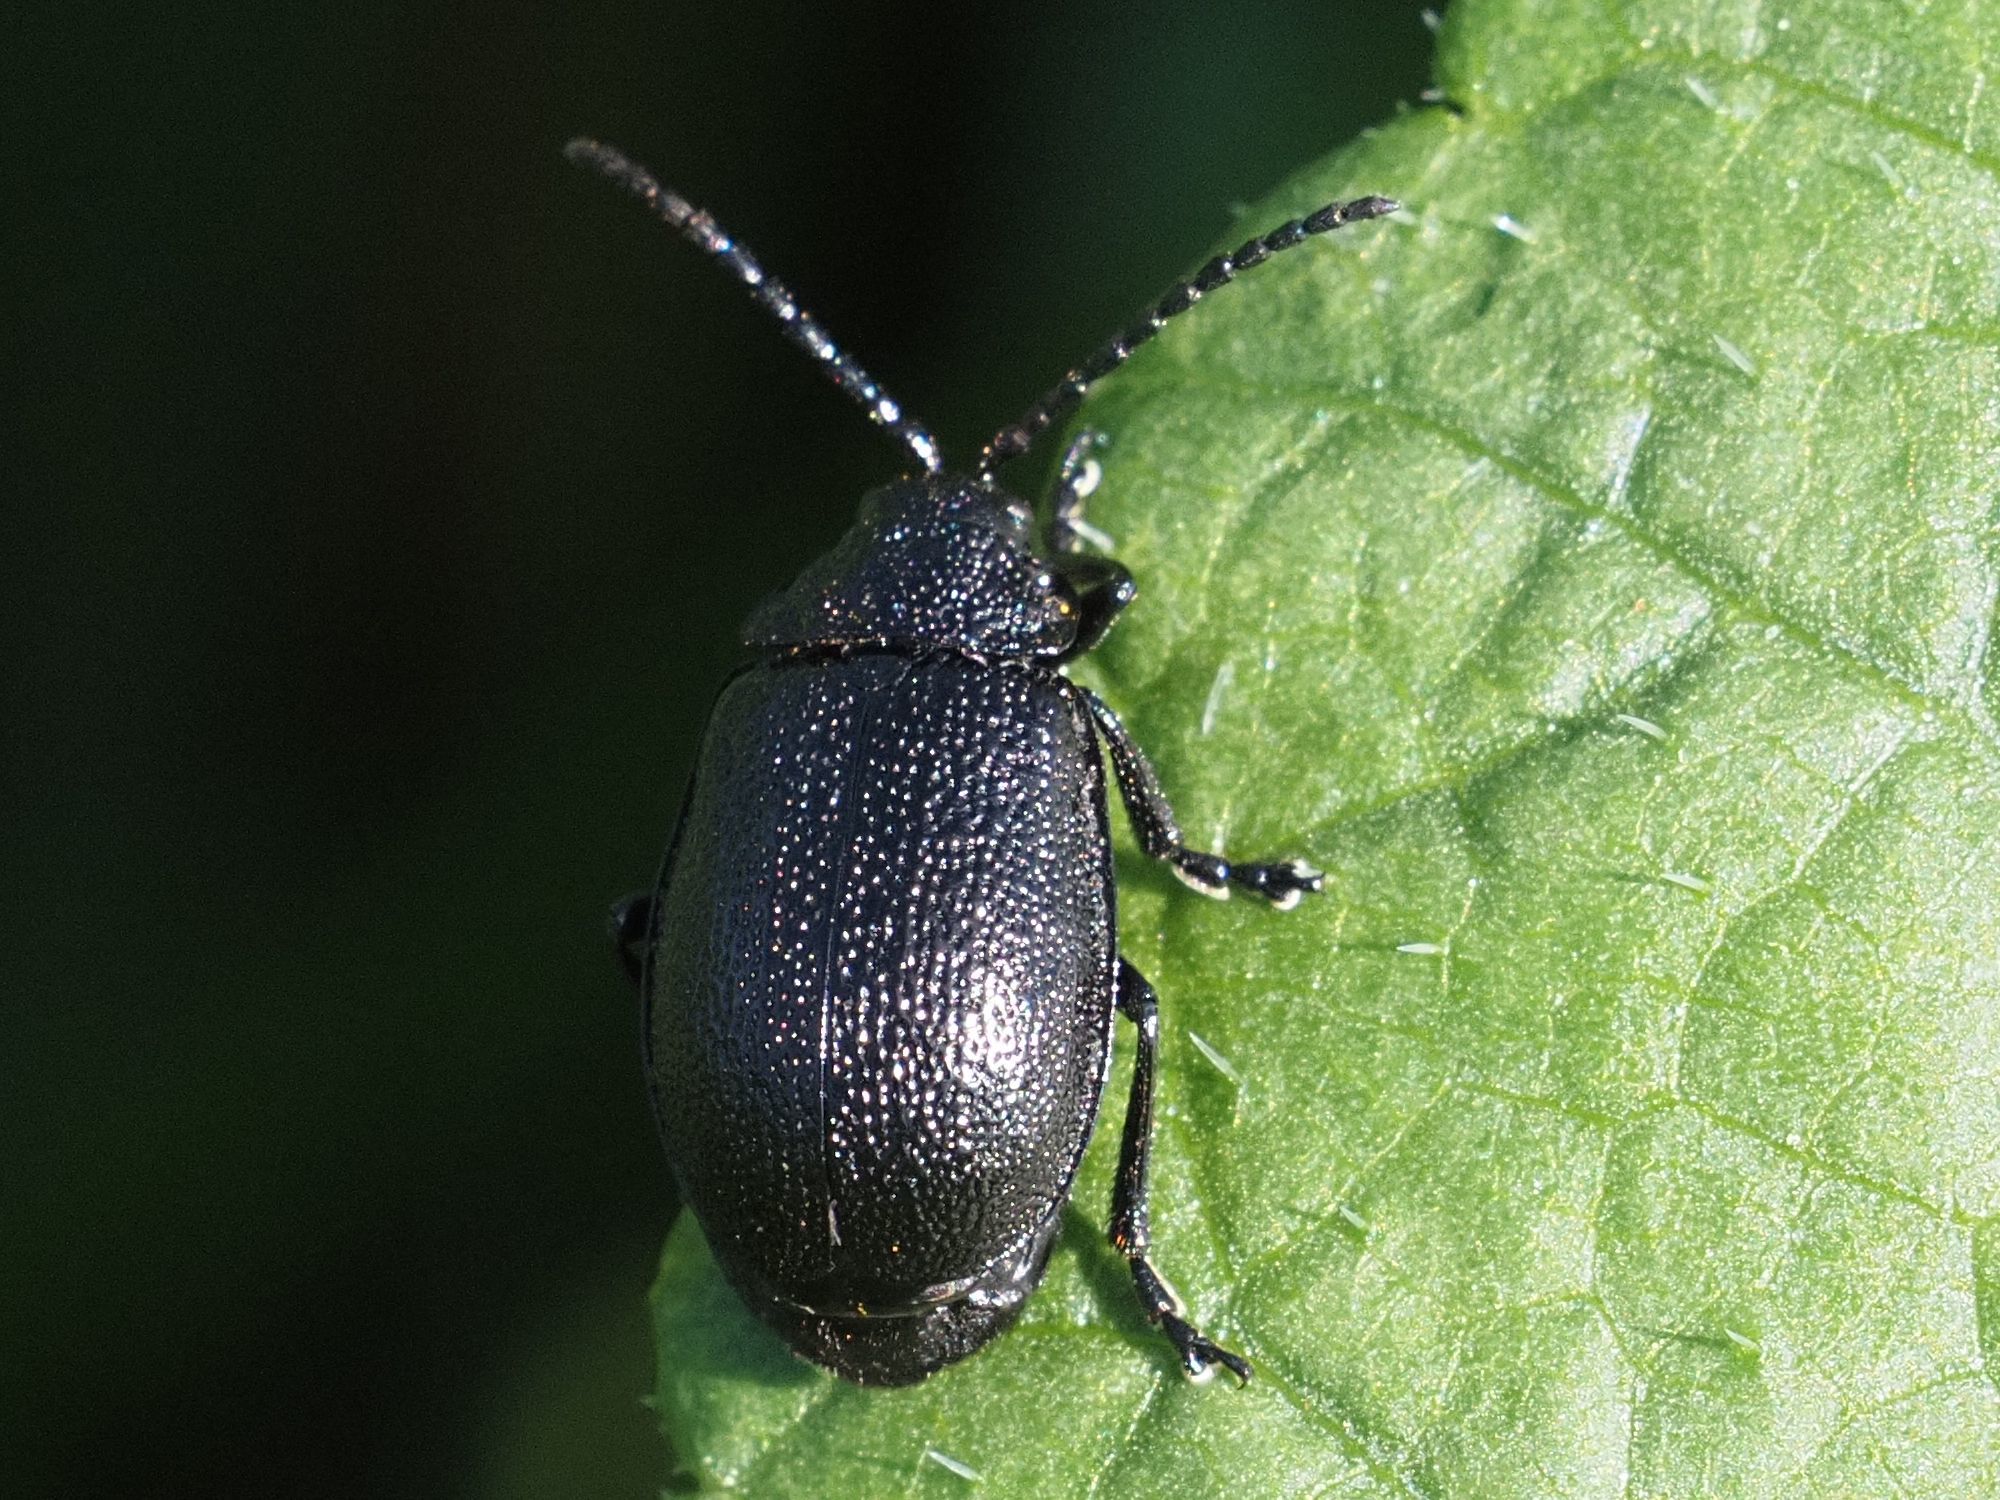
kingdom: Animalia
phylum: Arthropoda
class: Insecta
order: Coleoptera
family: Chrysomelidae
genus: Galeruca
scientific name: Galeruca tanaceti
